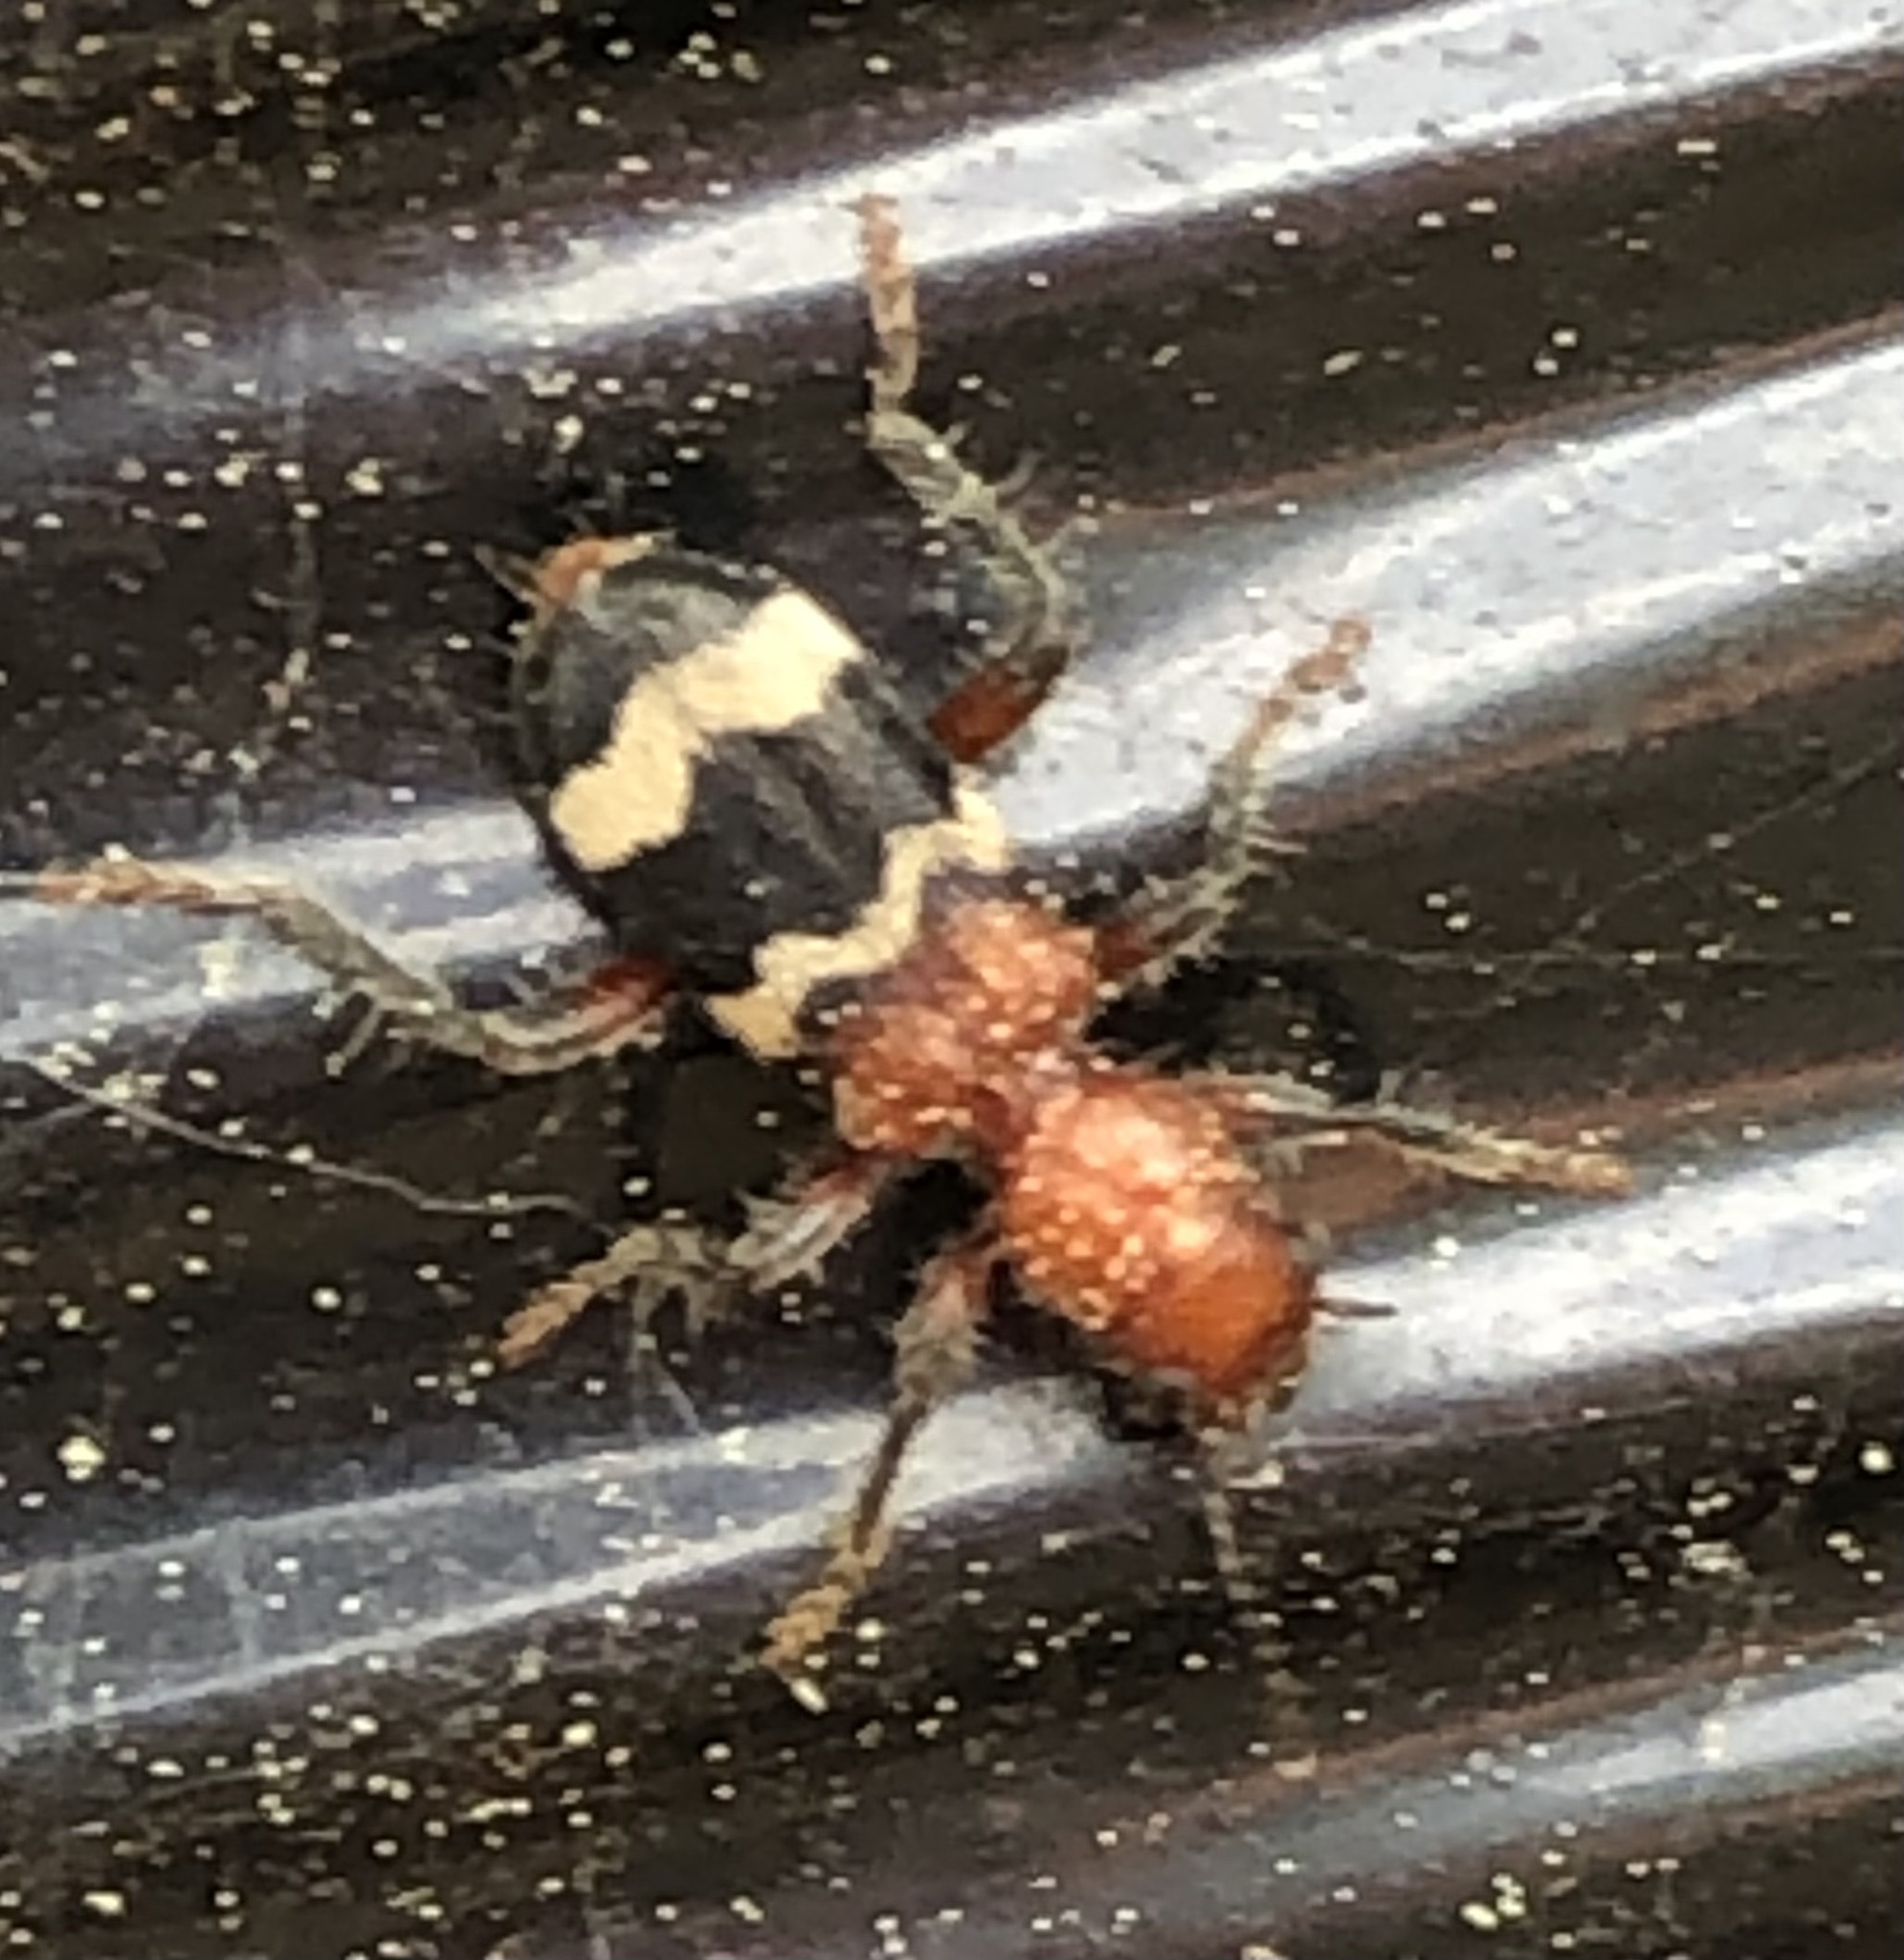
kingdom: Animalia
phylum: Arthropoda
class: Insecta
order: Coleoptera
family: Cleridae
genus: Thanasimus
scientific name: Thanasimus dubius
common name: Wavering checkered beetle
